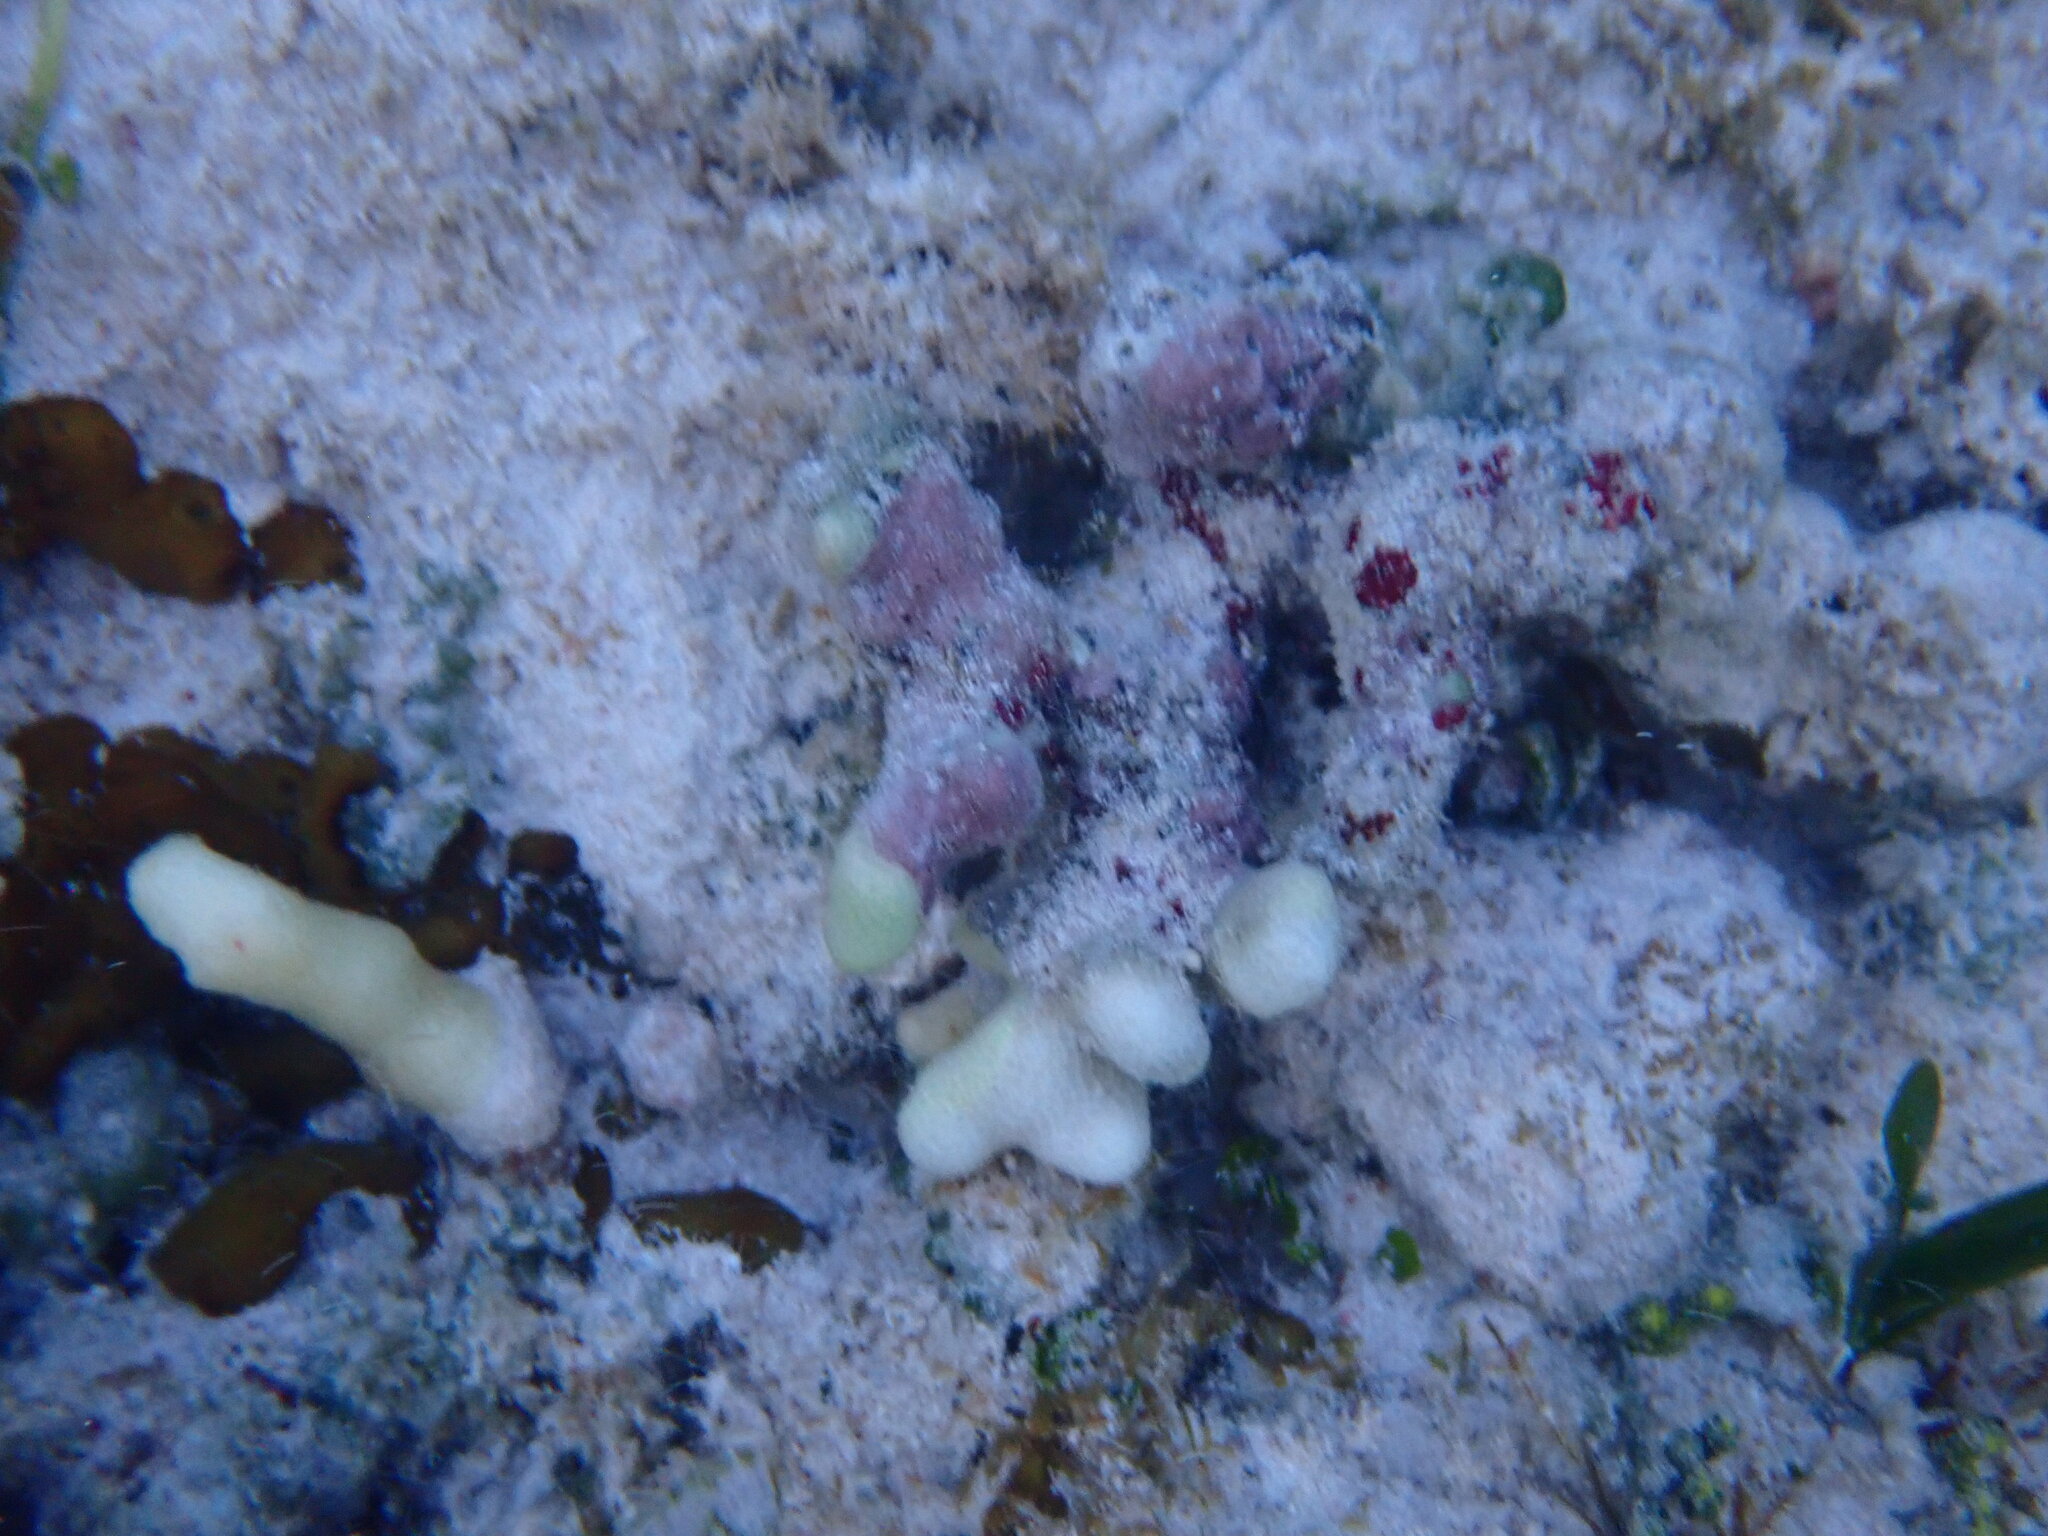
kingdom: Animalia
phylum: Cnidaria
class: Anthozoa
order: Scleractinia
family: Poritidae
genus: Porites
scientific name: Porites porites
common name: Finger coral
